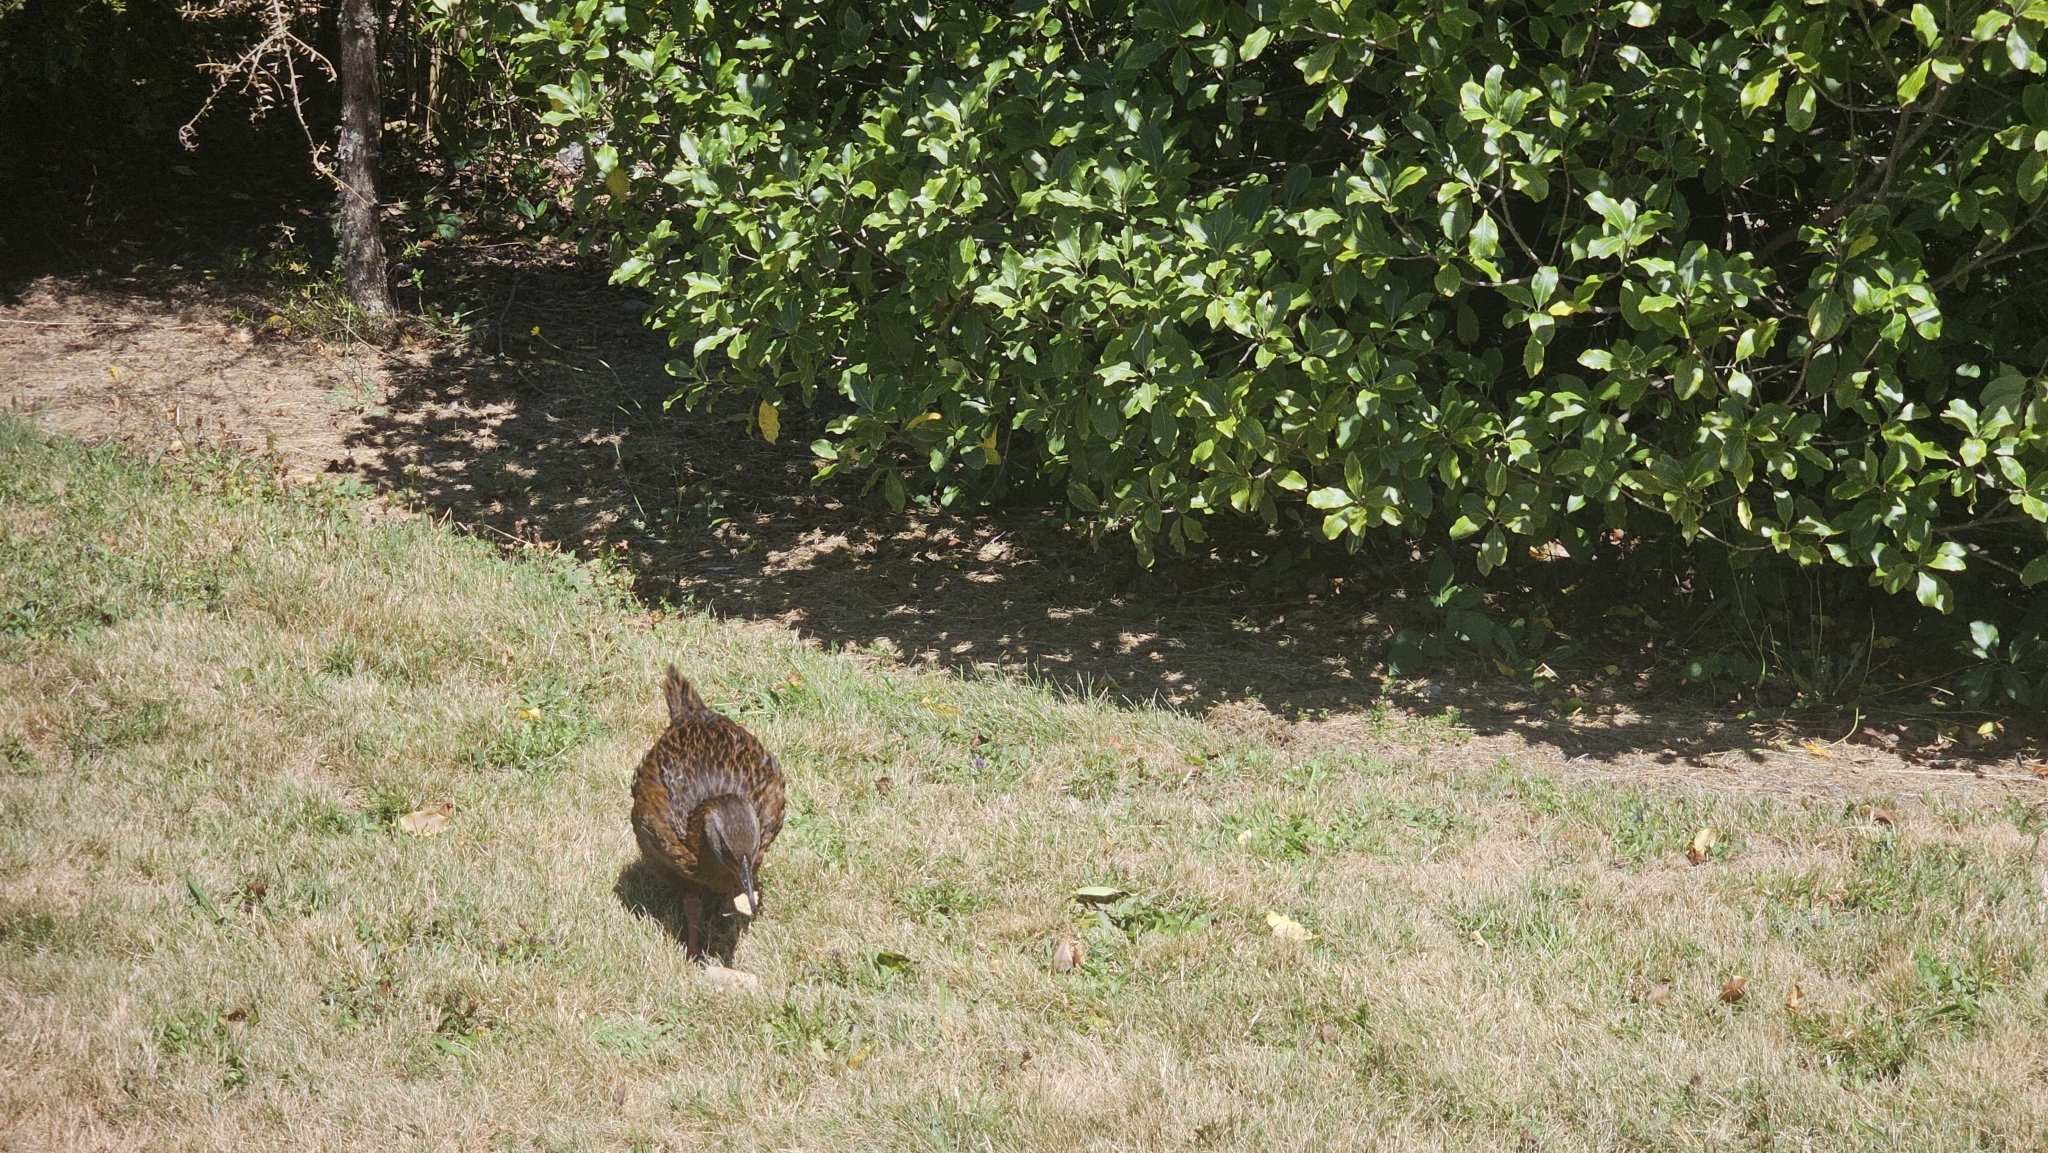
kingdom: Animalia
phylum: Chordata
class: Aves
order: Gruiformes
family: Rallidae
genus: Gallirallus
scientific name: Gallirallus australis
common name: Weka
